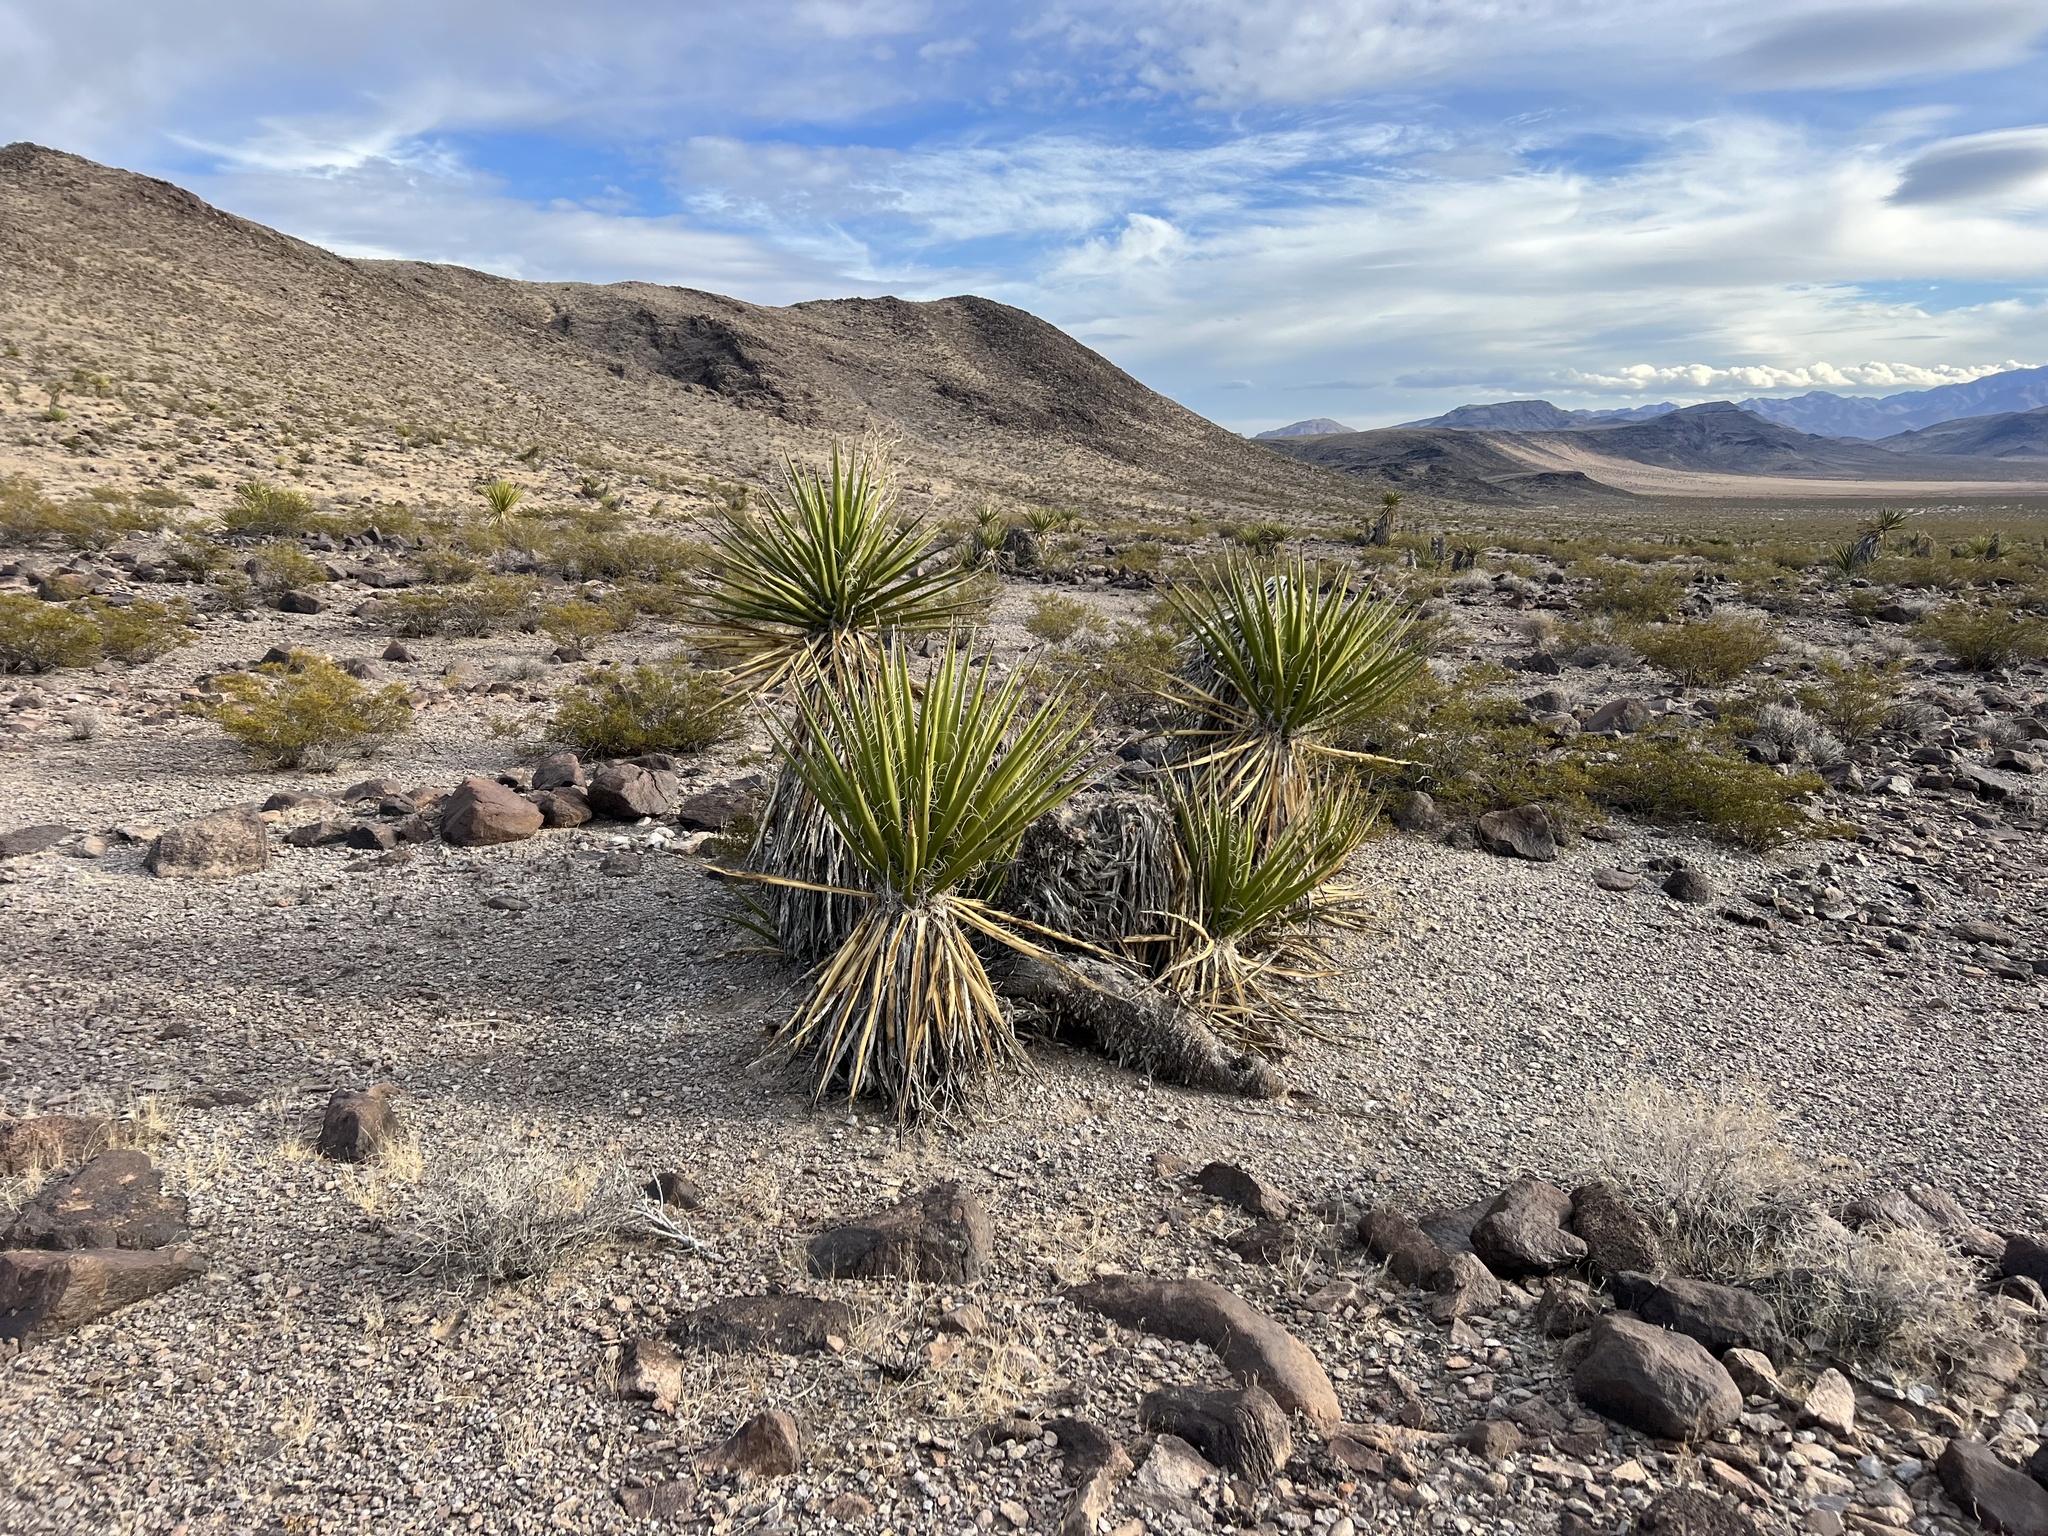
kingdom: Plantae
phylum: Tracheophyta
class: Liliopsida
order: Asparagales
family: Asparagaceae
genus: Yucca
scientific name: Yucca schidigera
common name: Mojave yucca
